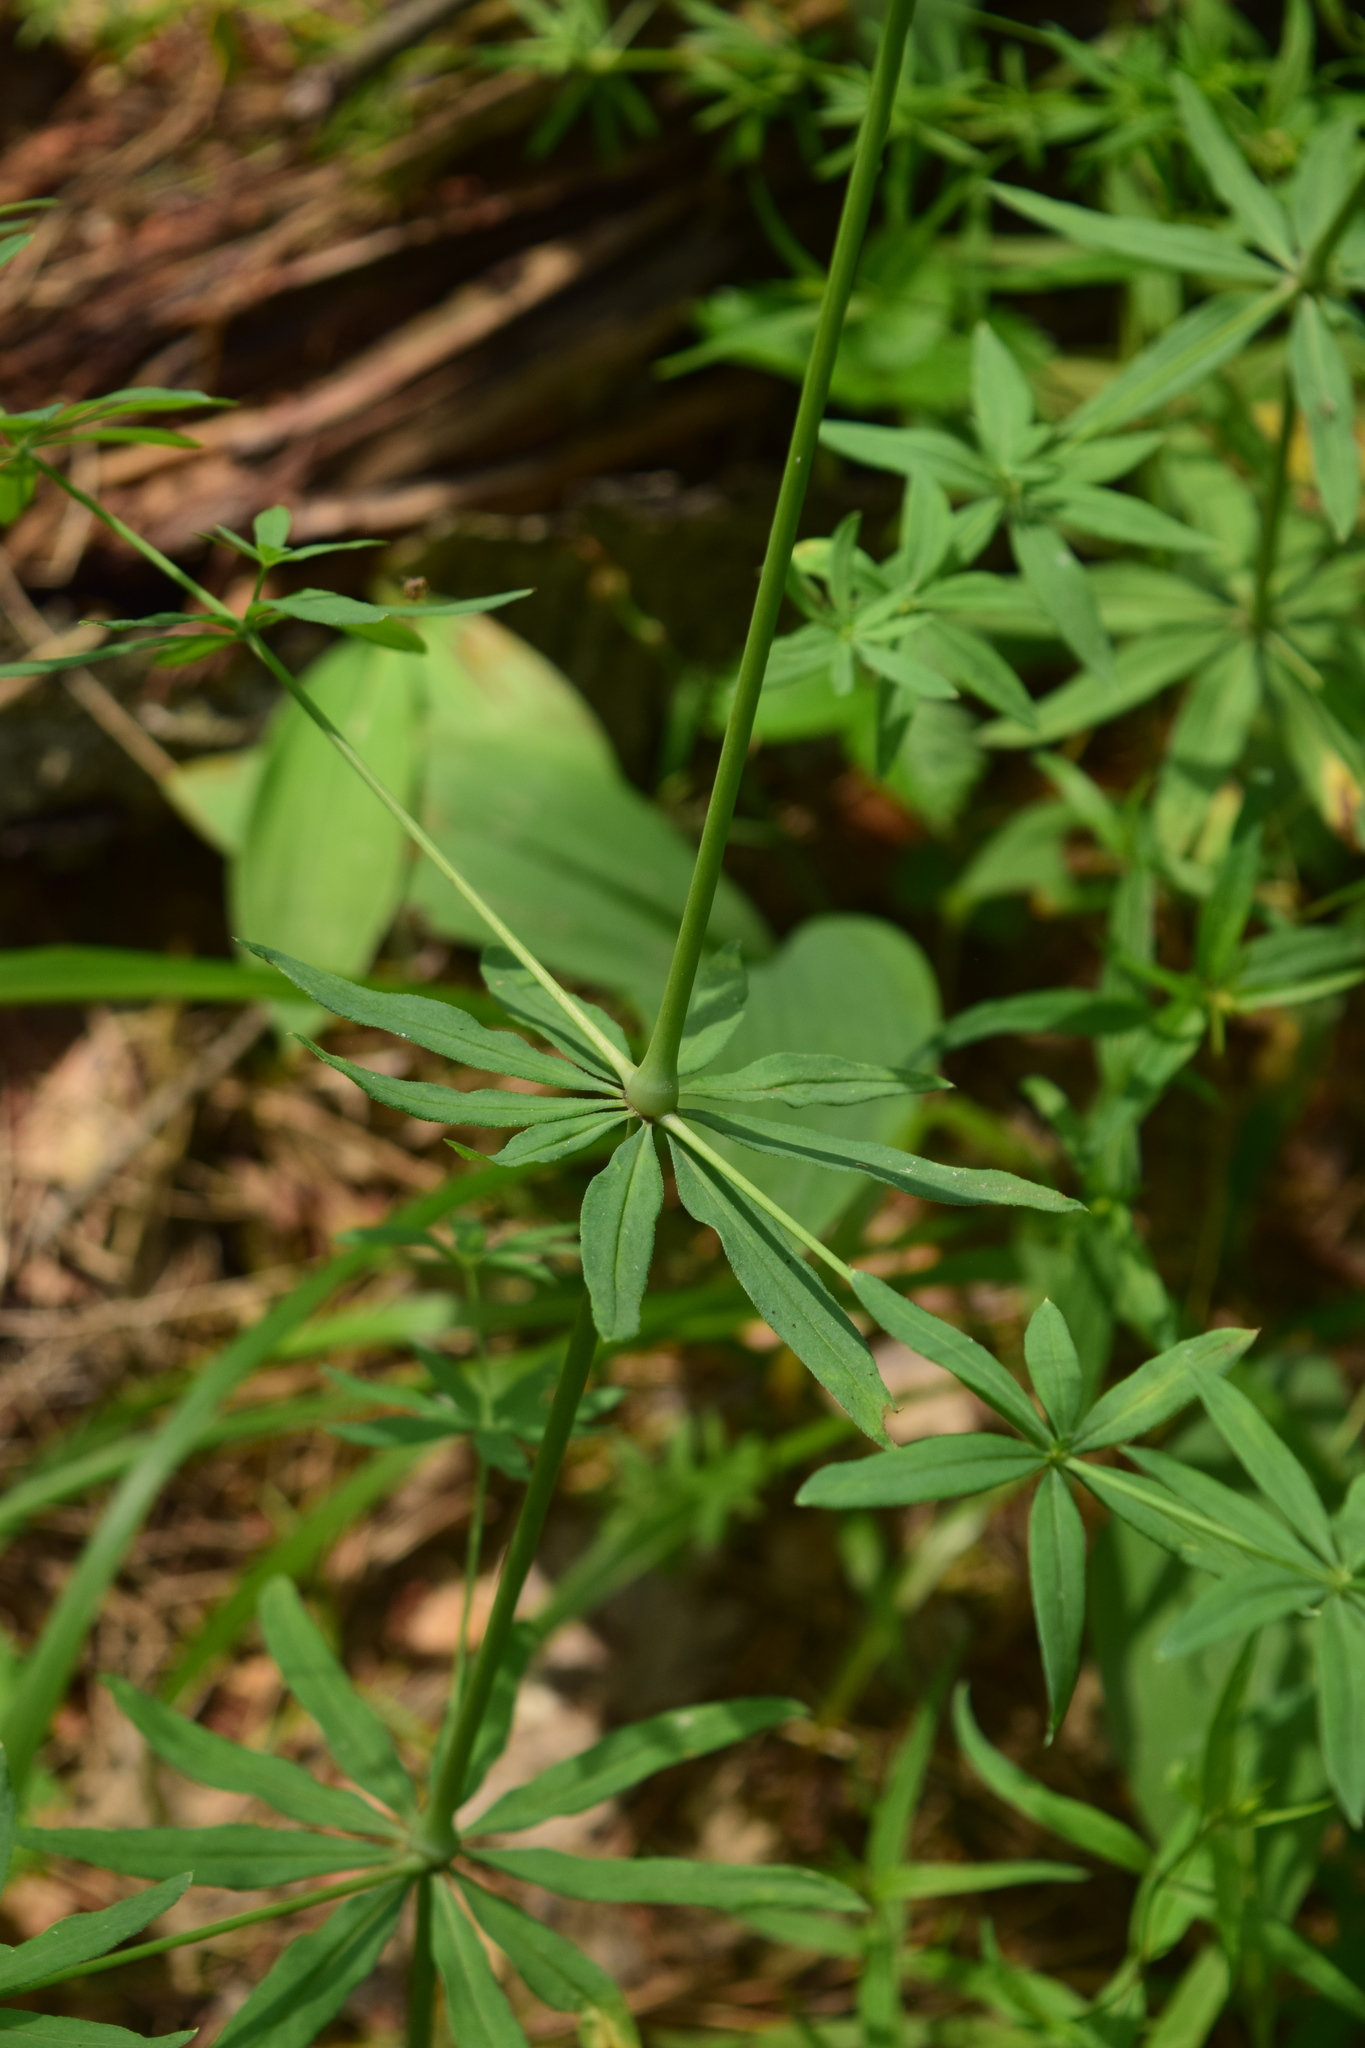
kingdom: Plantae
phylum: Tracheophyta
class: Magnoliopsida
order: Gentianales
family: Rubiaceae
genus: Galium
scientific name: Galium intermedium
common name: Bedstraw
